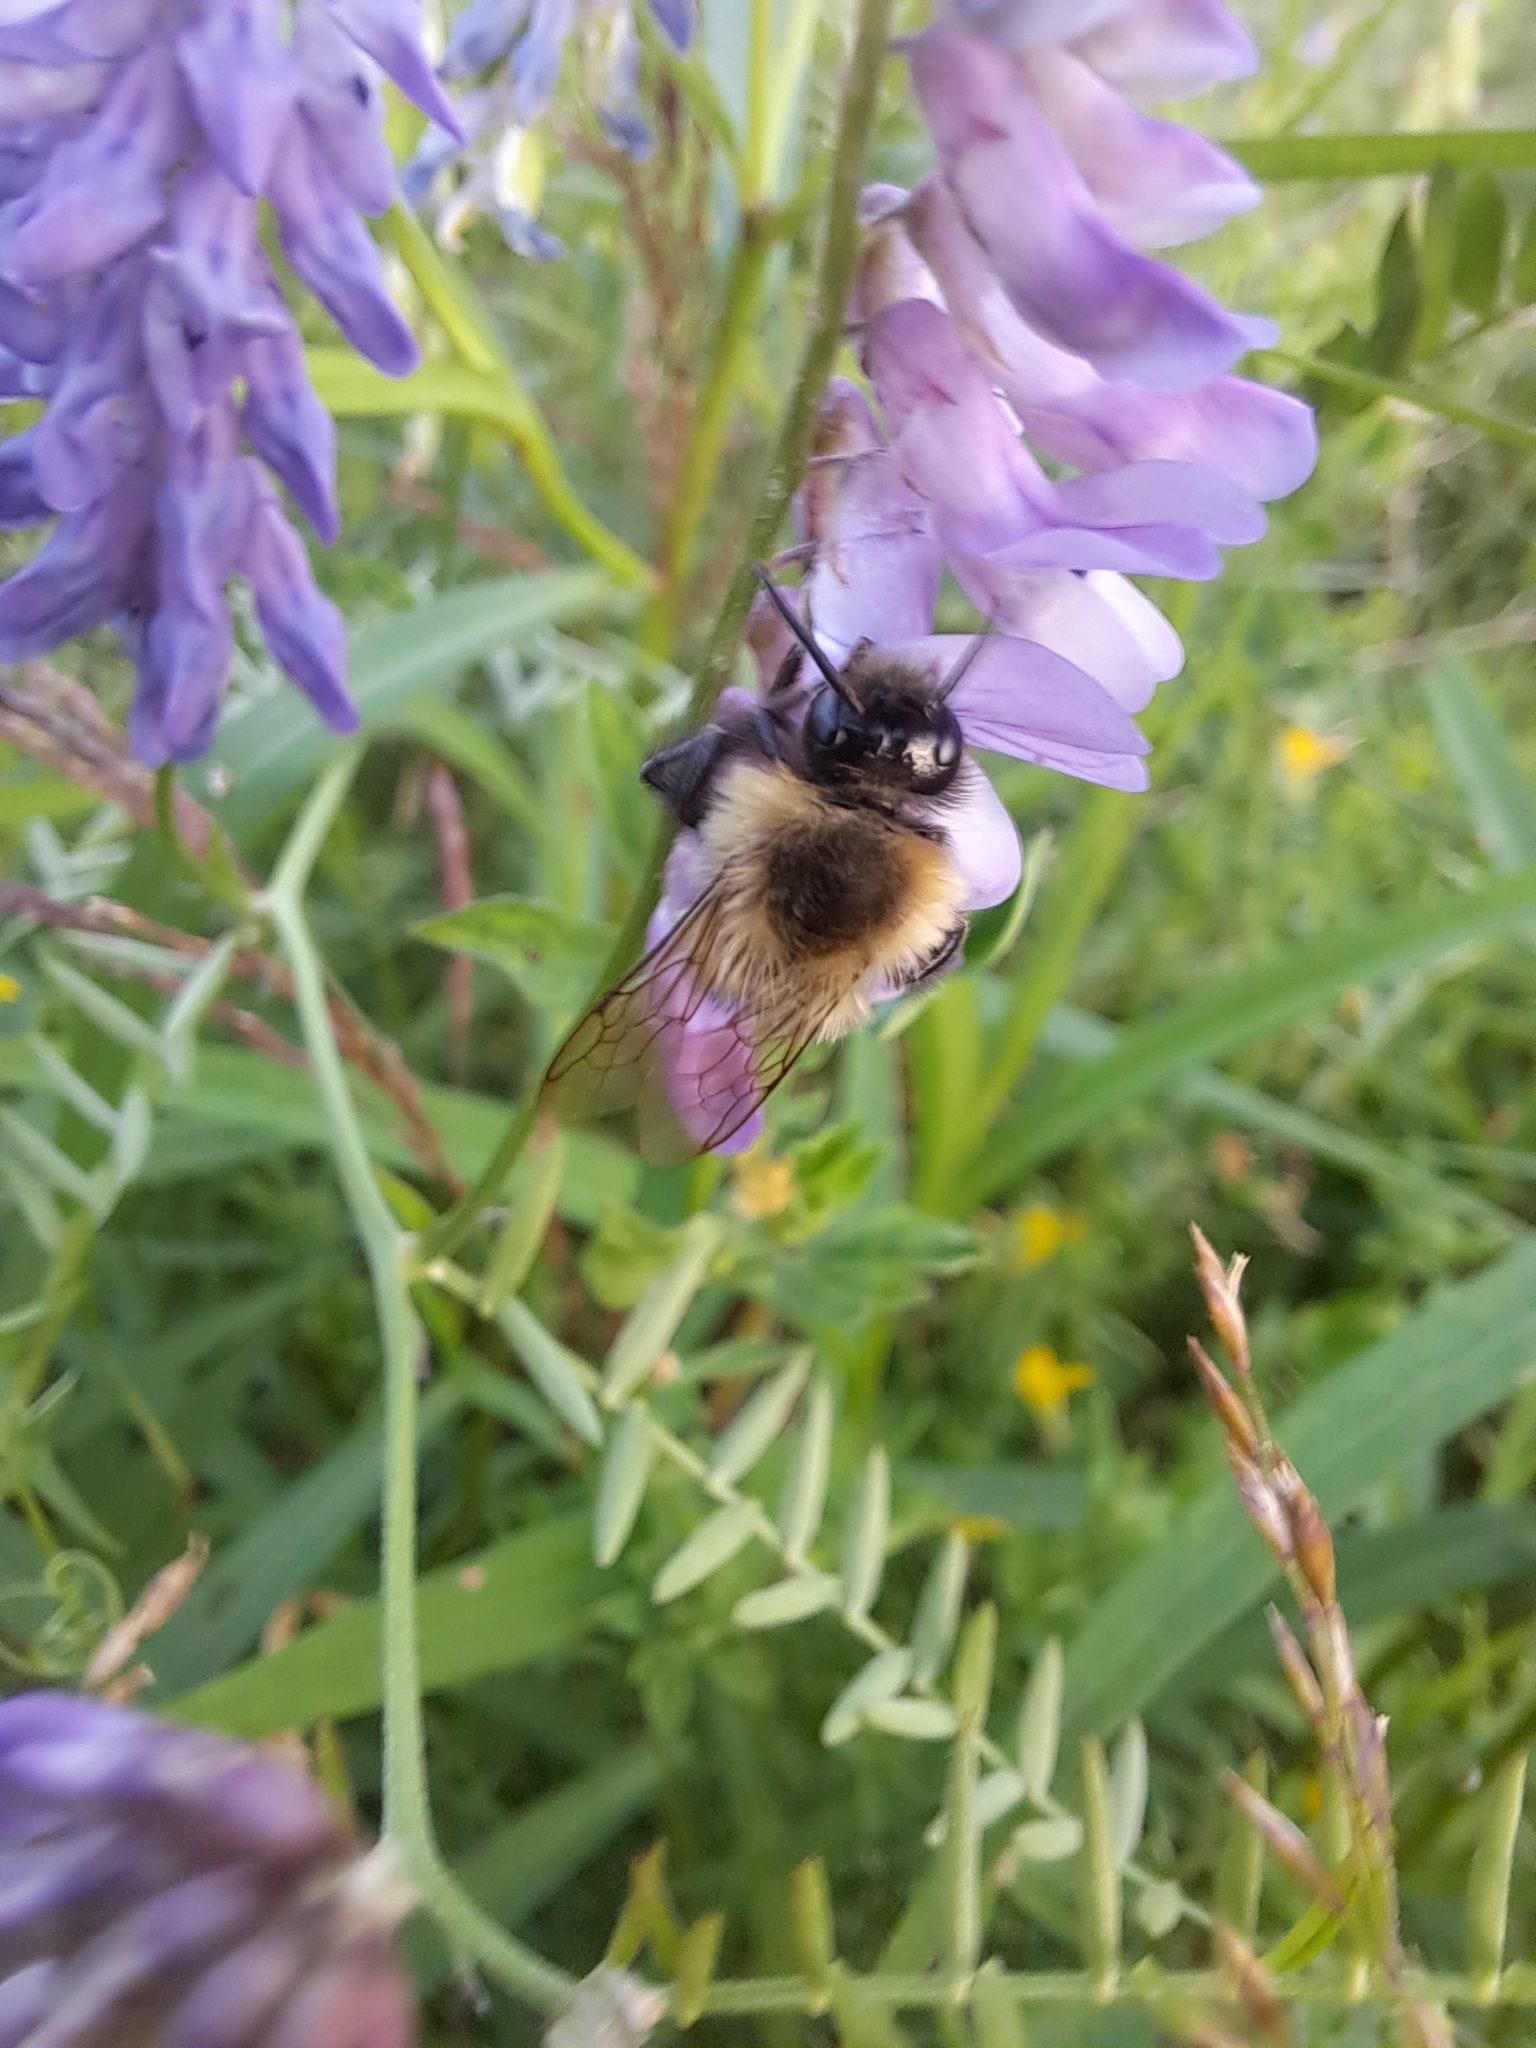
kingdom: Animalia
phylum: Arthropoda
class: Insecta
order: Hymenoptera
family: Apidae
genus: Bombus
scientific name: Bombus impatiens
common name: Common eastern bumble bee
